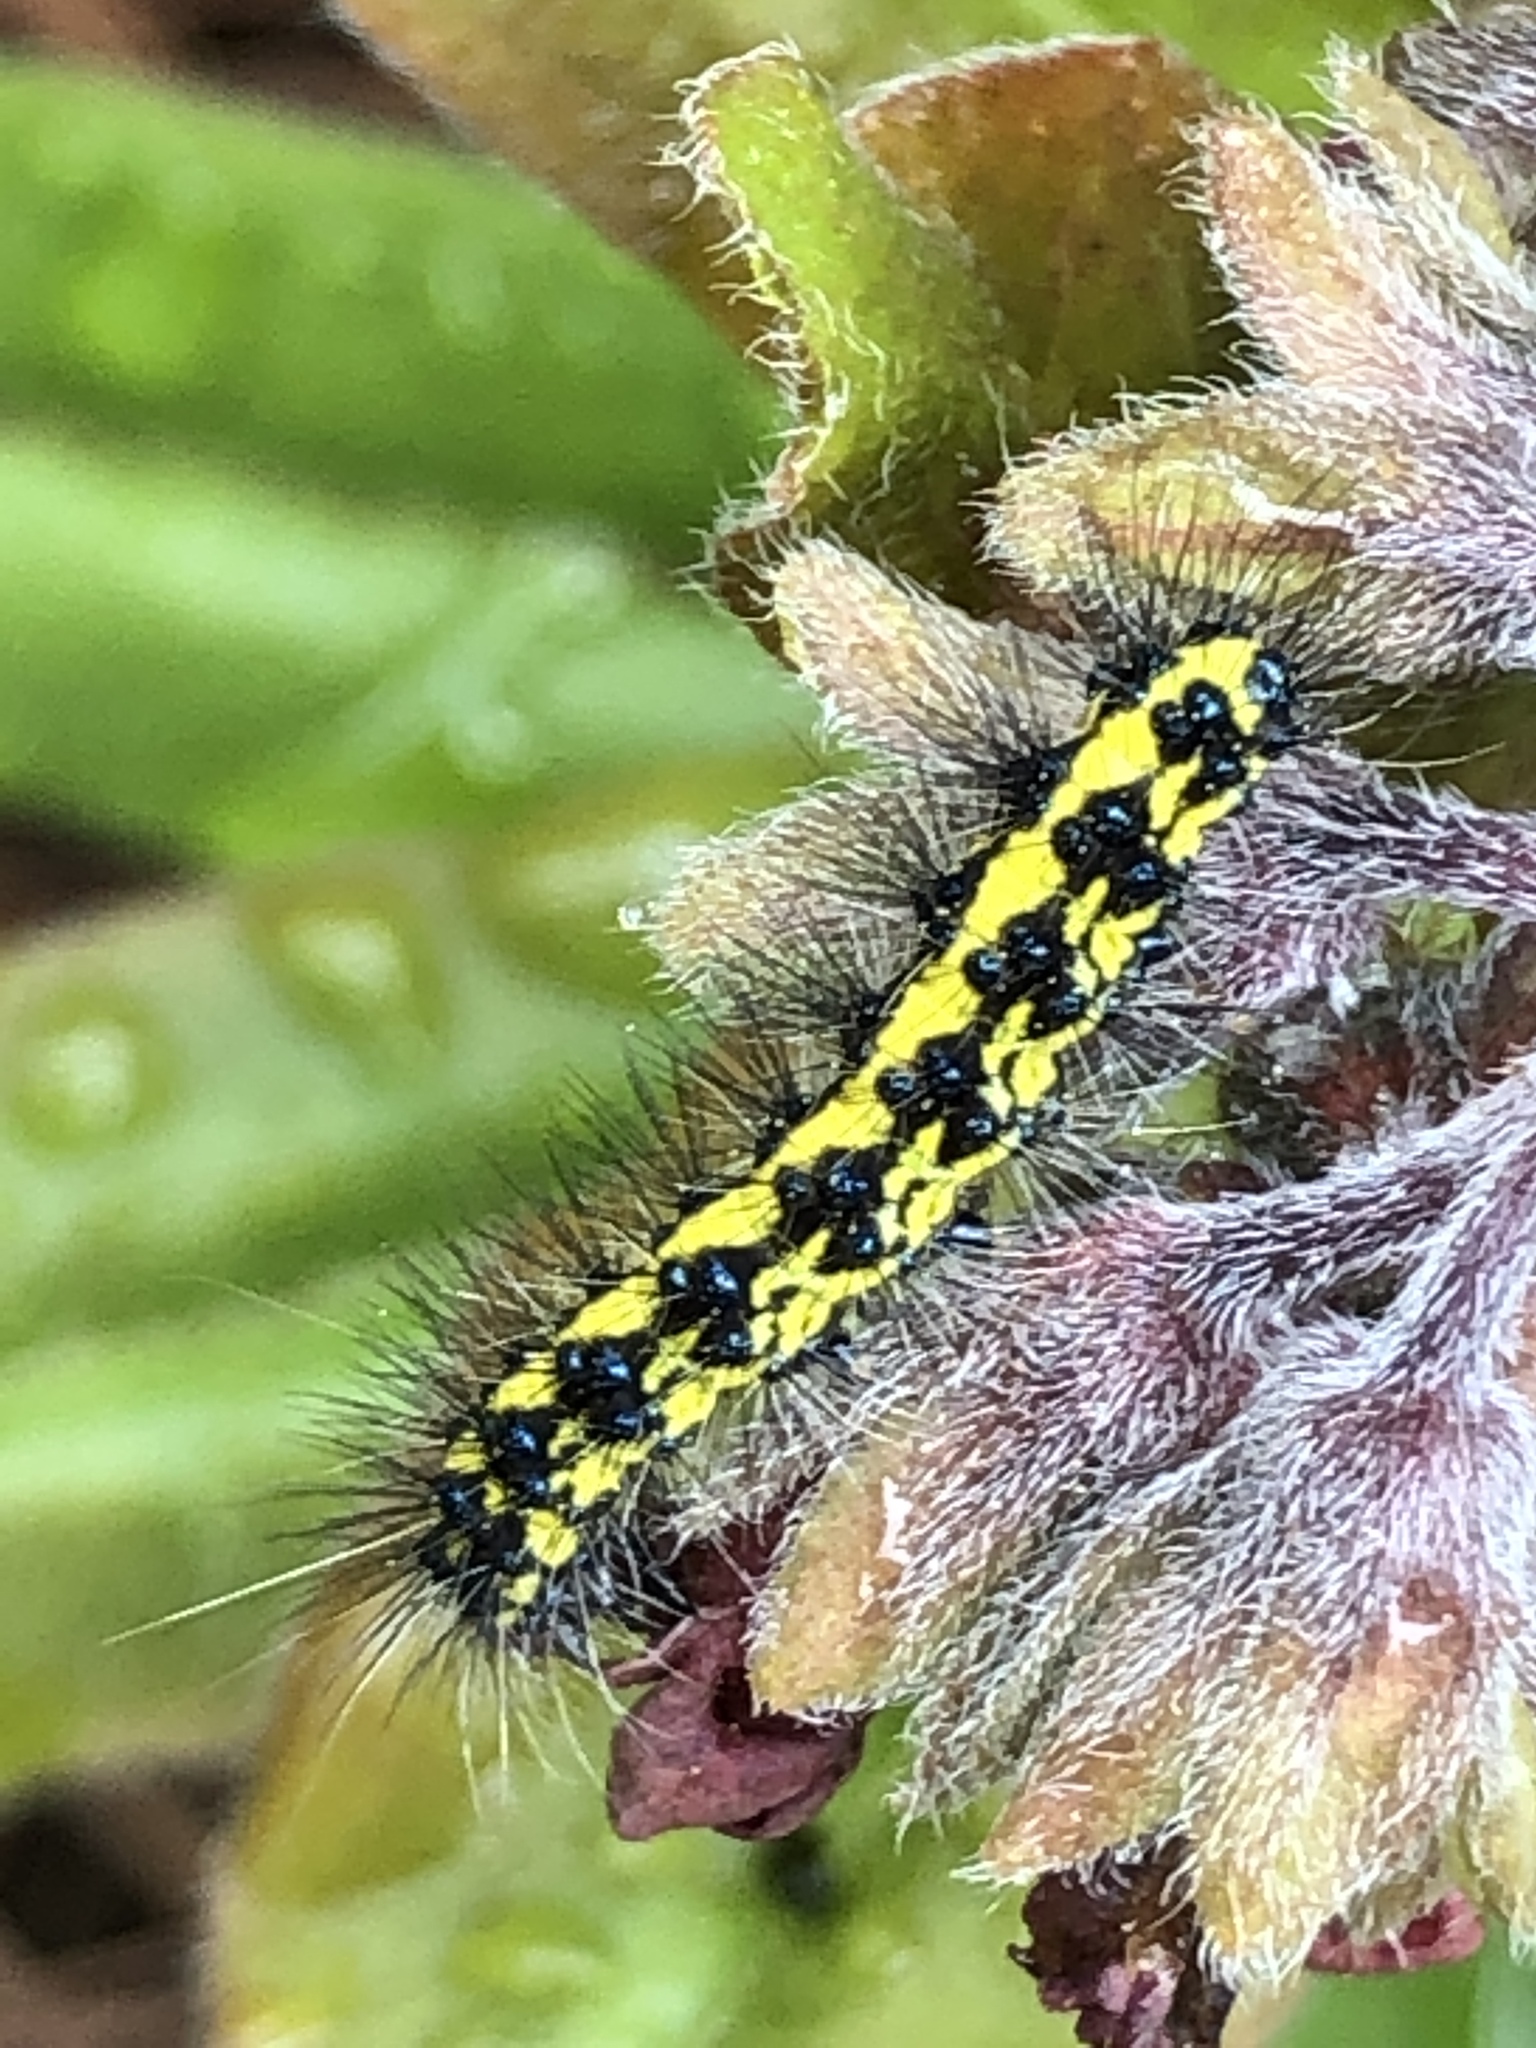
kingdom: Animalia
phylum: Arthropoda
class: Insecta
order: Lepidoptera
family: Erebidae
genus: Gnophaela
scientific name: Gnophaela latipennis
